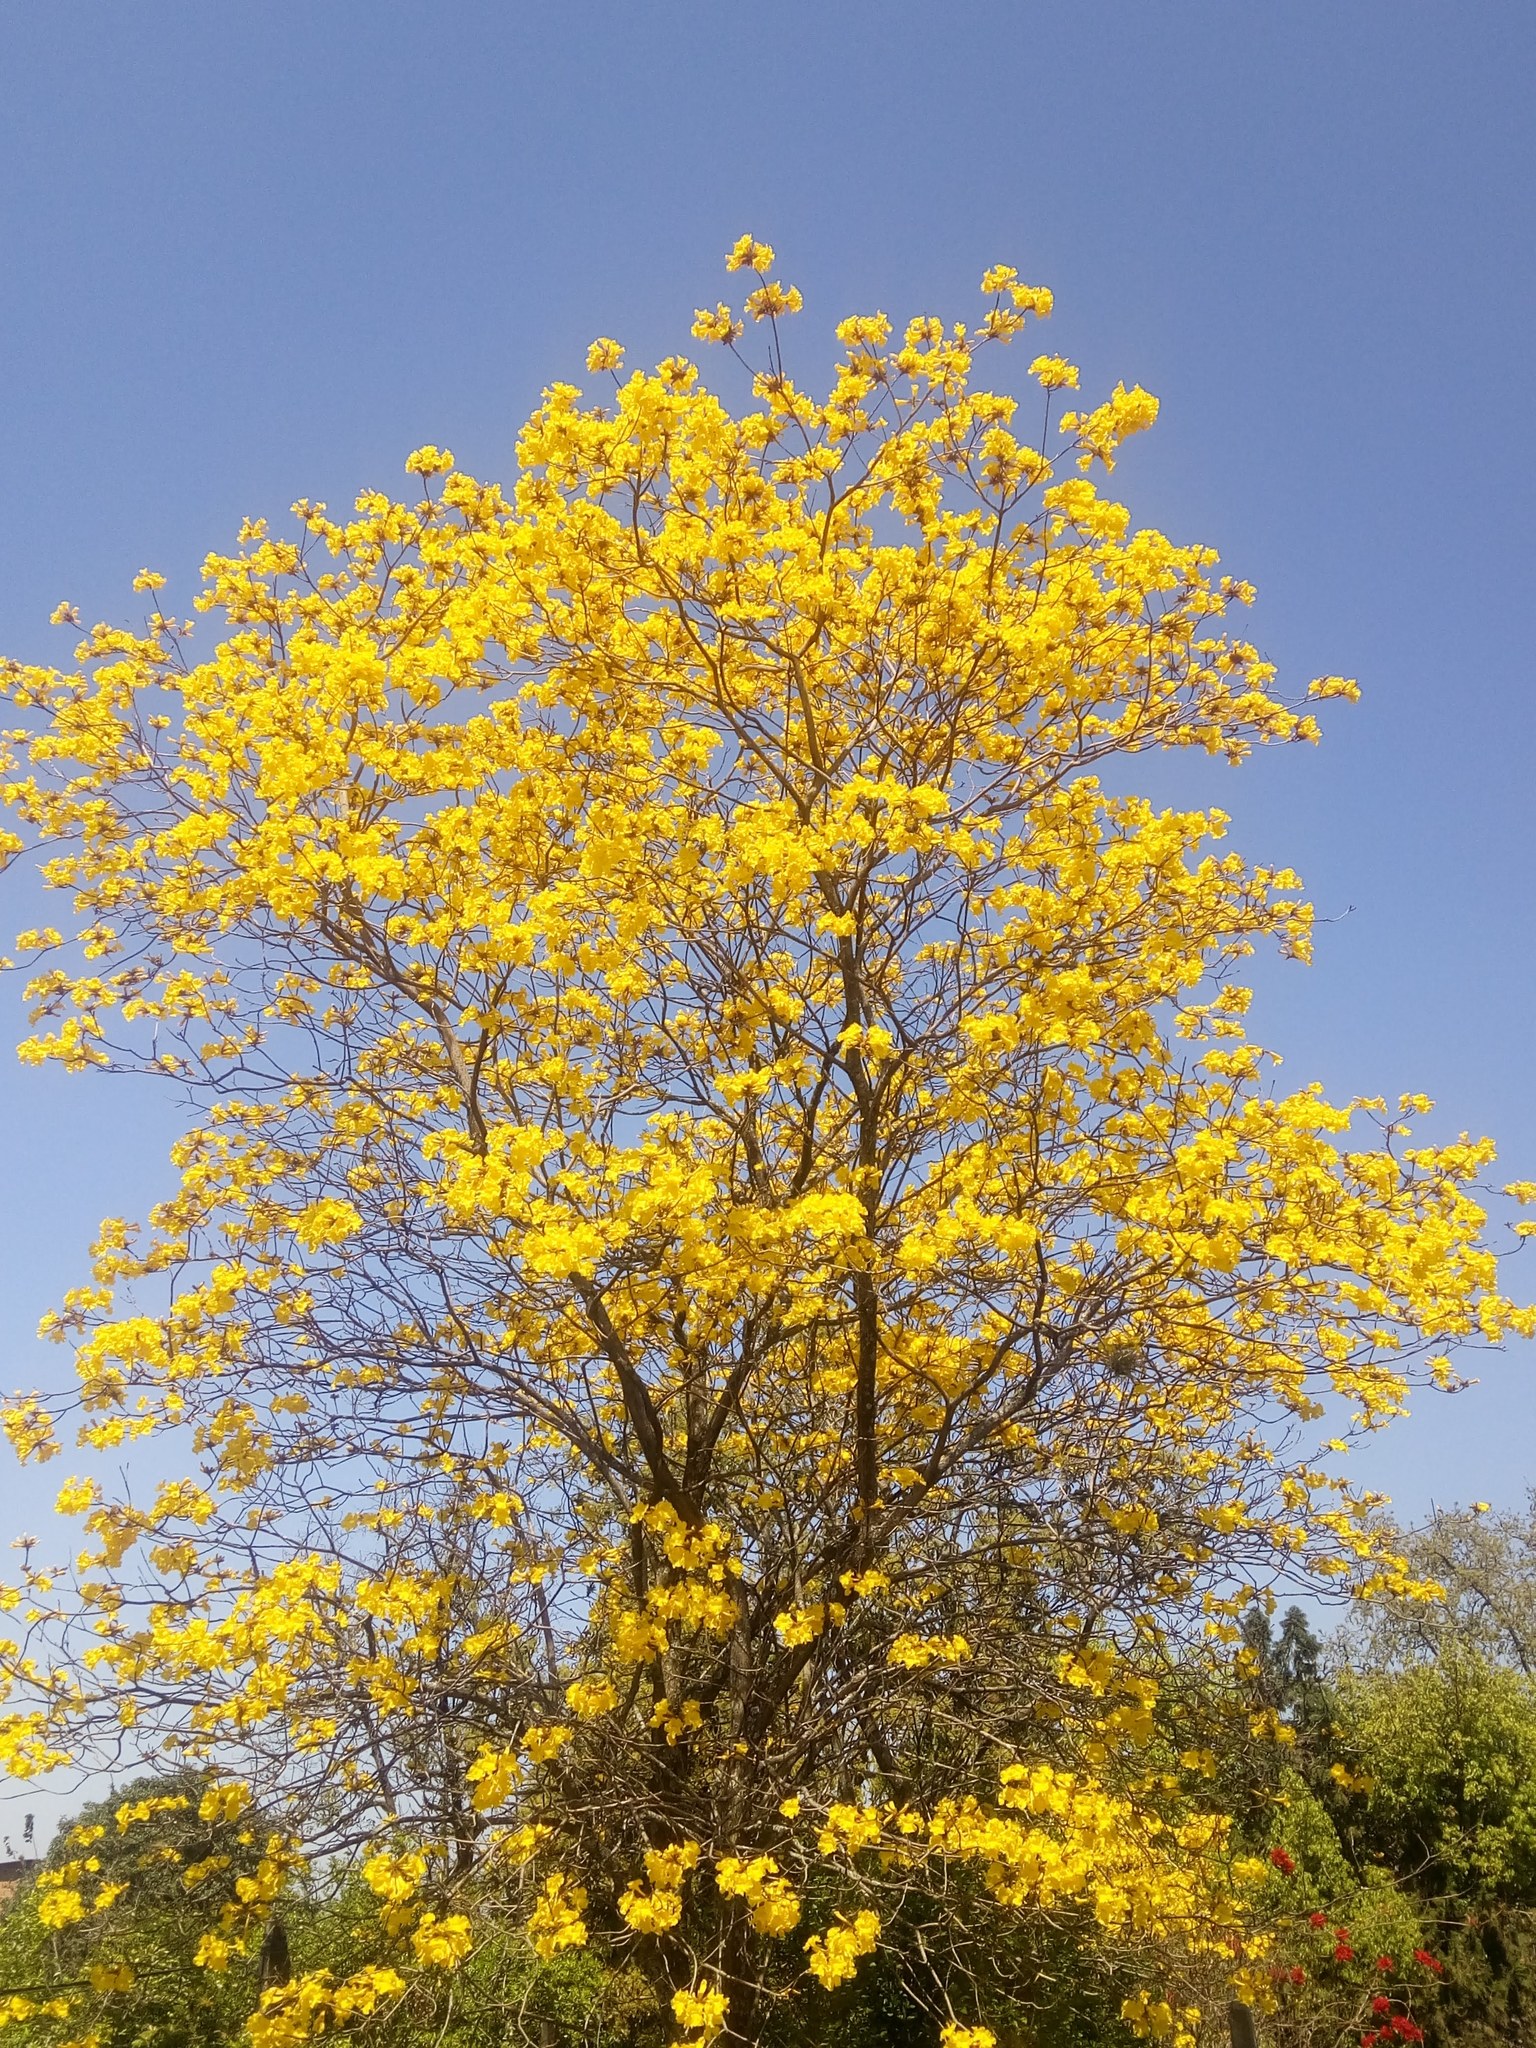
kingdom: Plantae
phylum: Tracheophyta
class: Magnoliopsida
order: Lamiales
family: Bignoniaceae
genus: Handroanthus
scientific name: Handroanthus ochraceus
